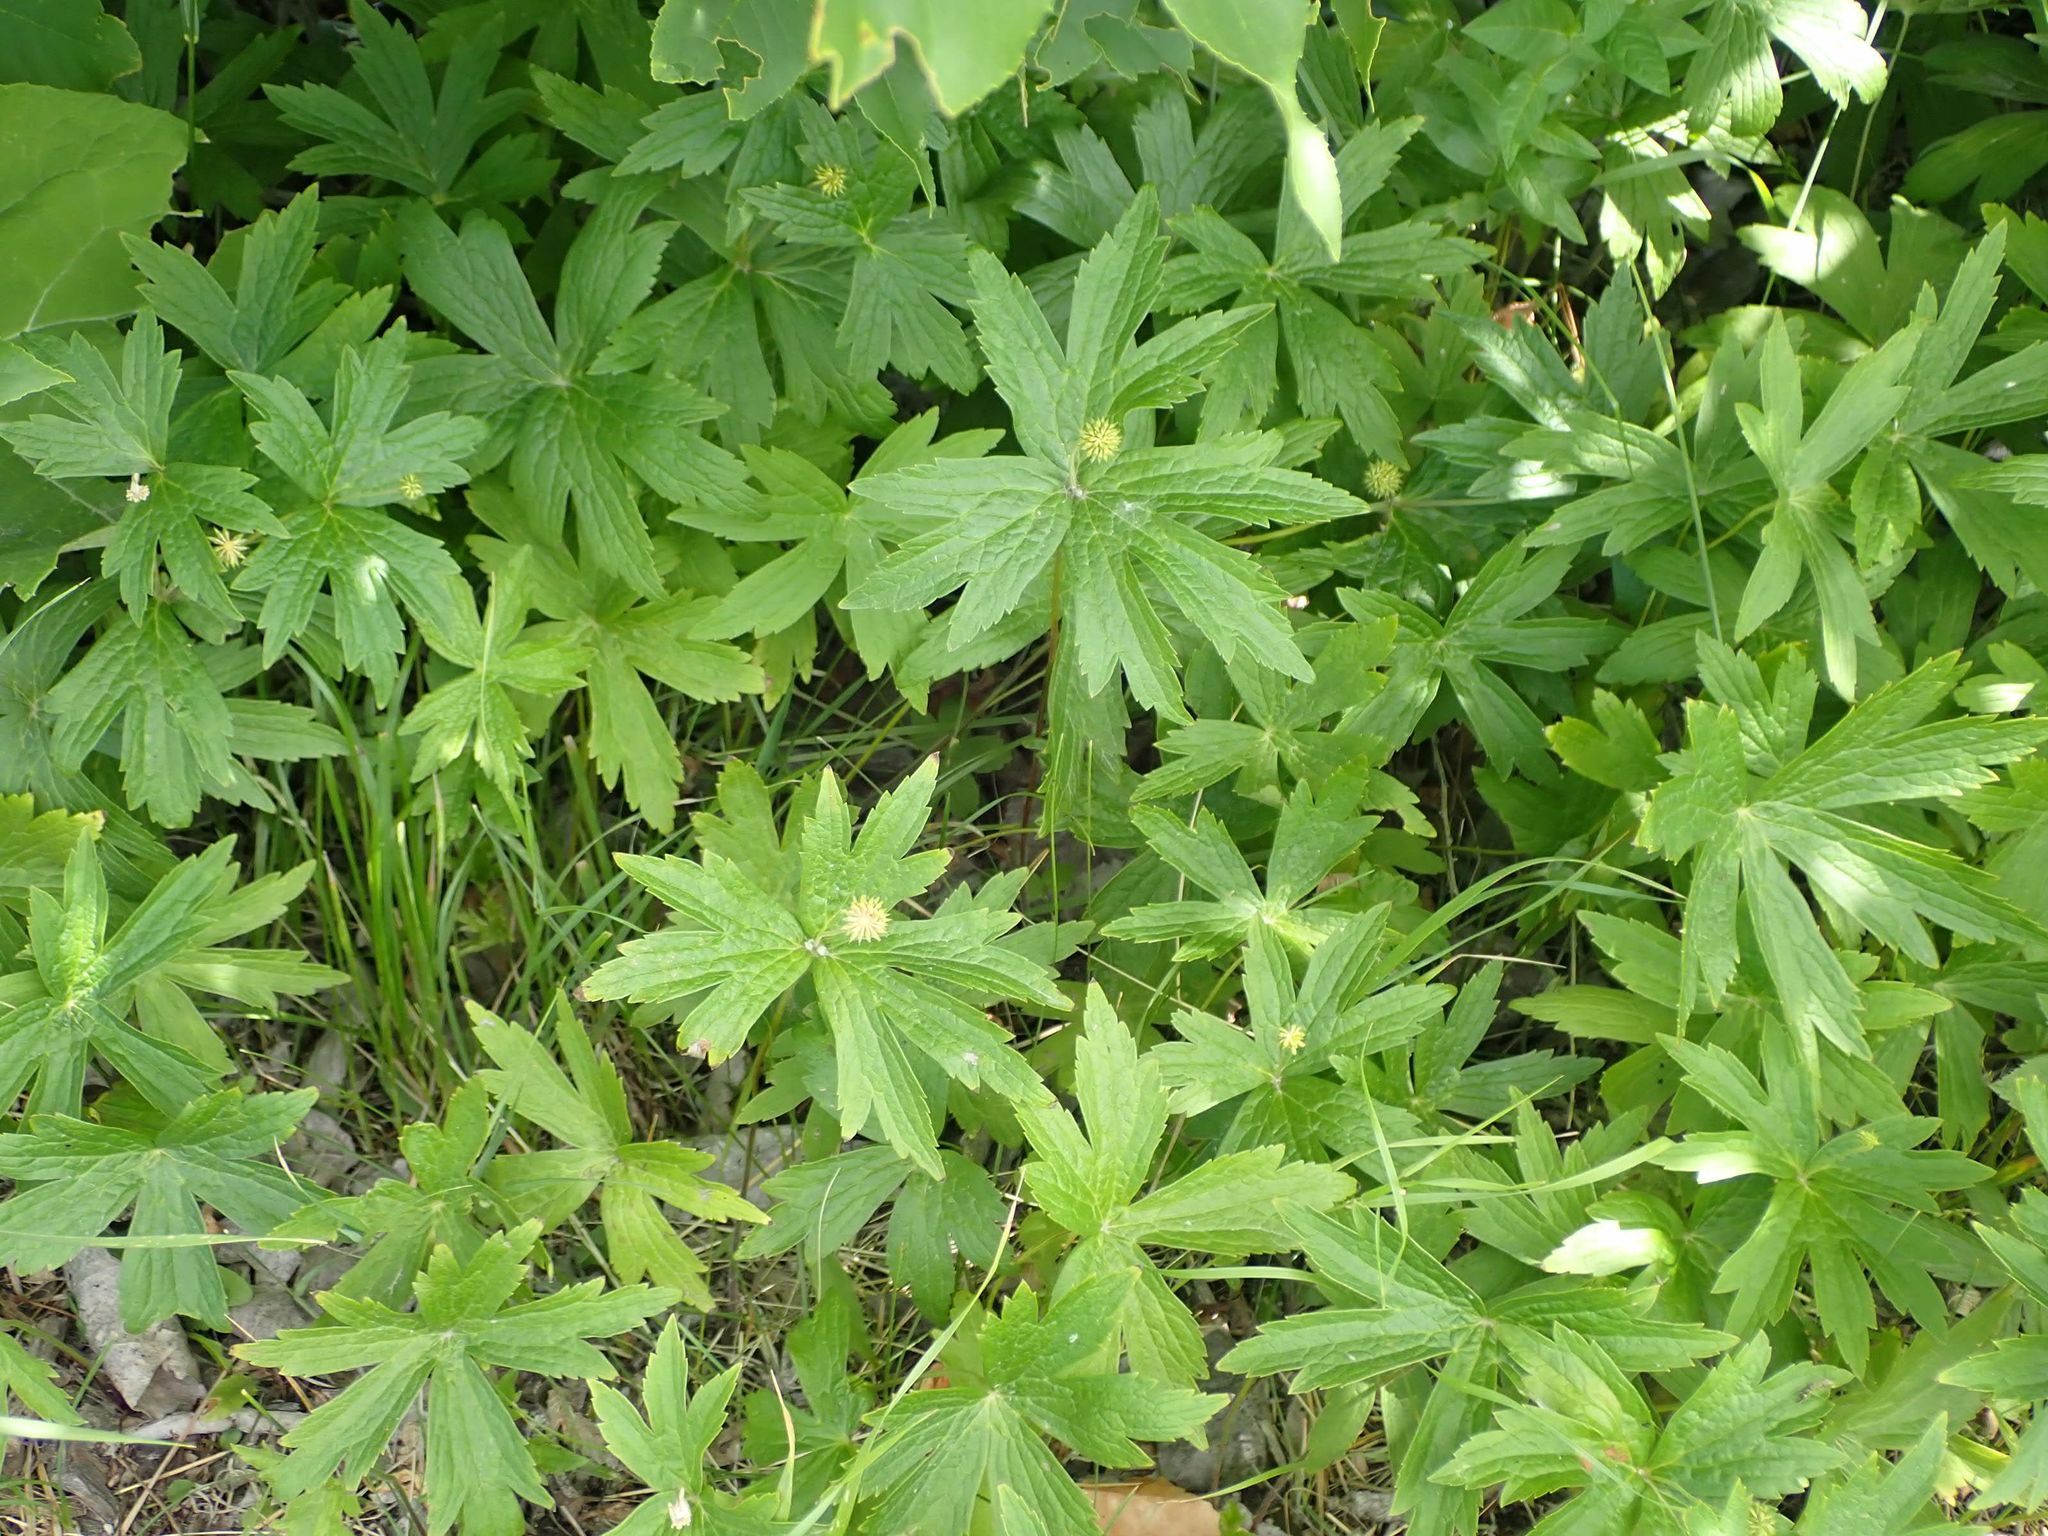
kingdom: Plantae
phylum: Tracheophyta
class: Magnoliopsida
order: Ranunculales
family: Ranunculaceae
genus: Anemonastrum
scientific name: Anemonastrum canadense
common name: Canada anemone
